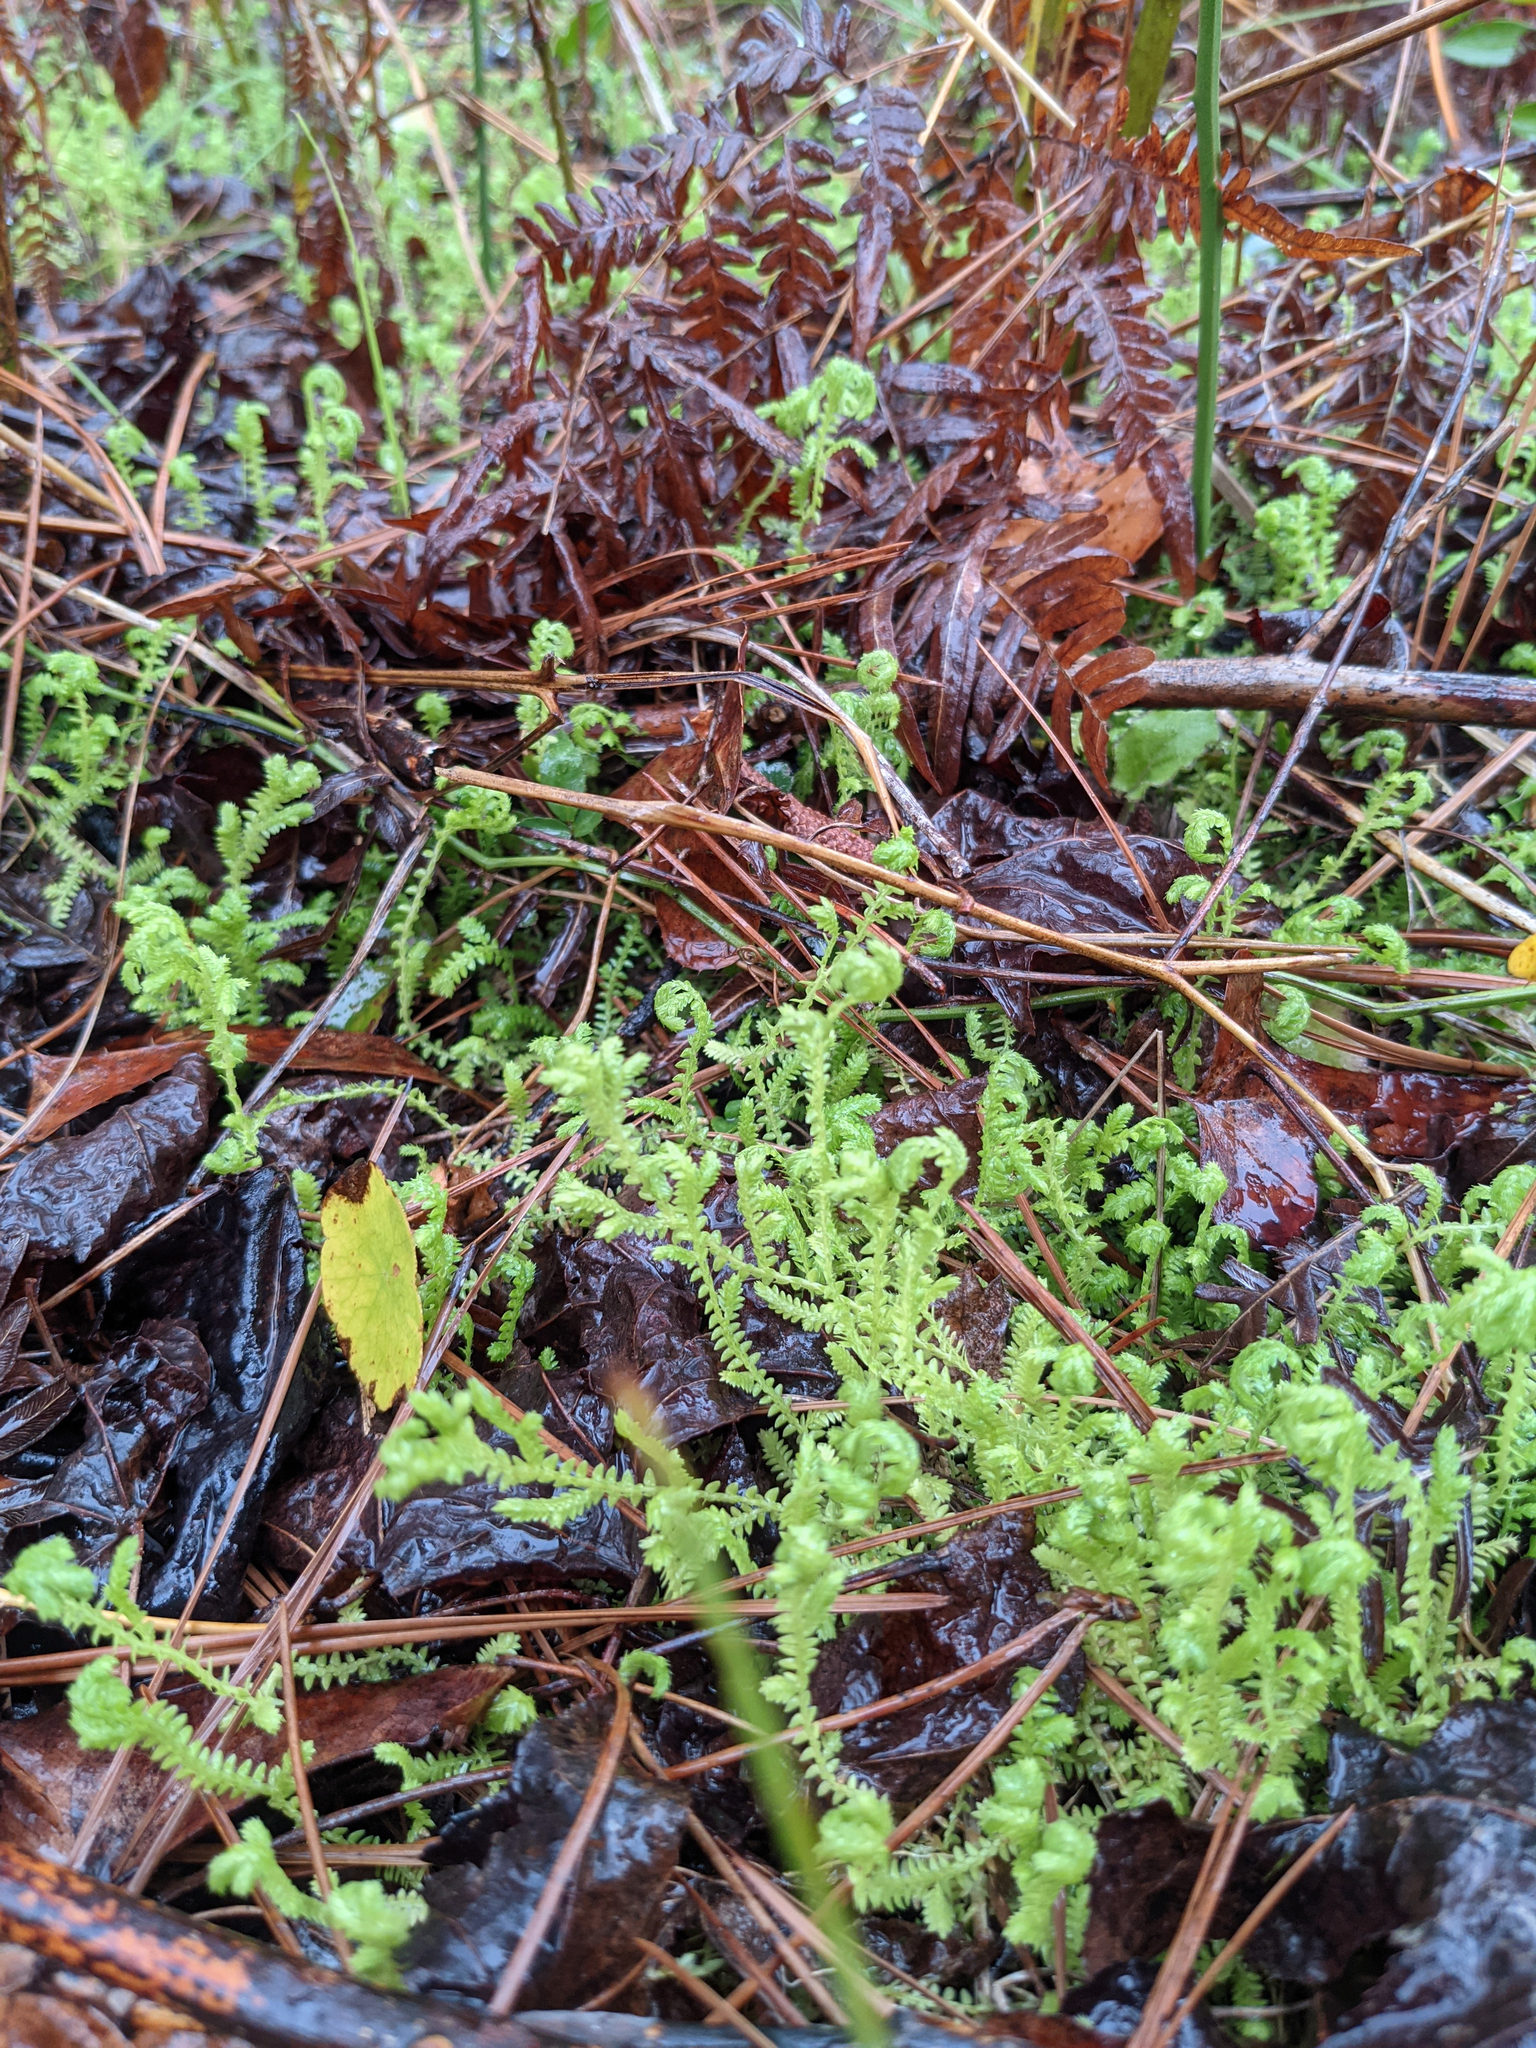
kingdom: Plantae
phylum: Tracheophyta
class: Lycopodiopsida
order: Selaginellales
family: Selaginellaceae
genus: Selaginella
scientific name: Selaginella ludoviciana
